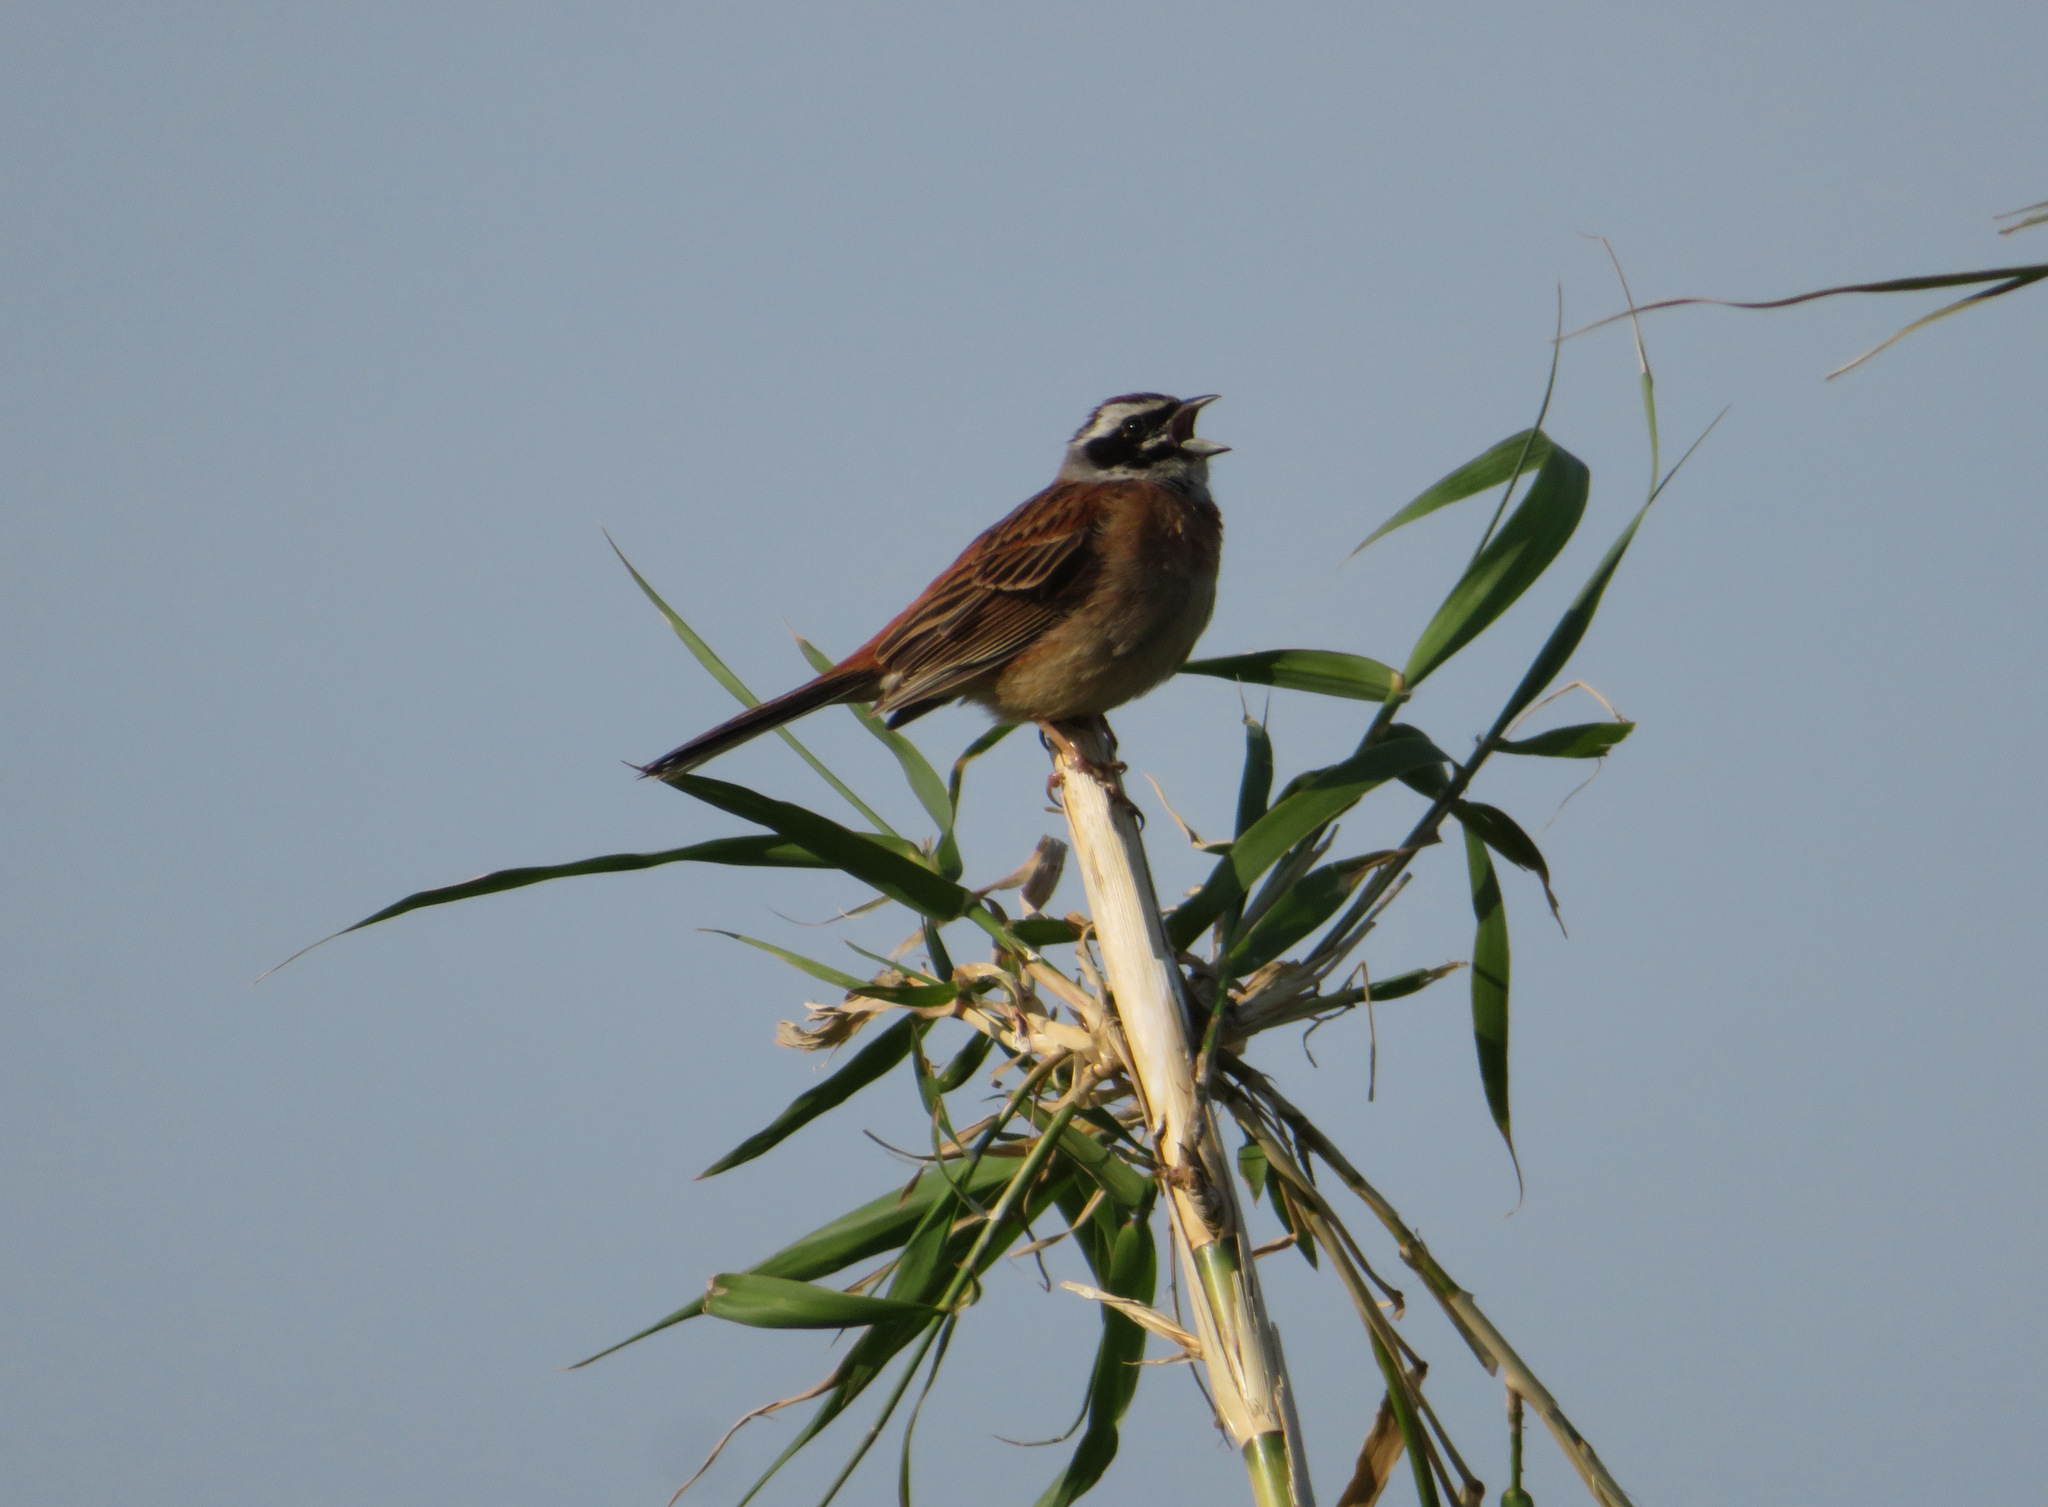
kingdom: Animalia
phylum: Chordata
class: Aves
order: Passeriformes
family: Emberizidae
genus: Emberiza
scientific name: Emberiza cioides
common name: Meadow bunting
